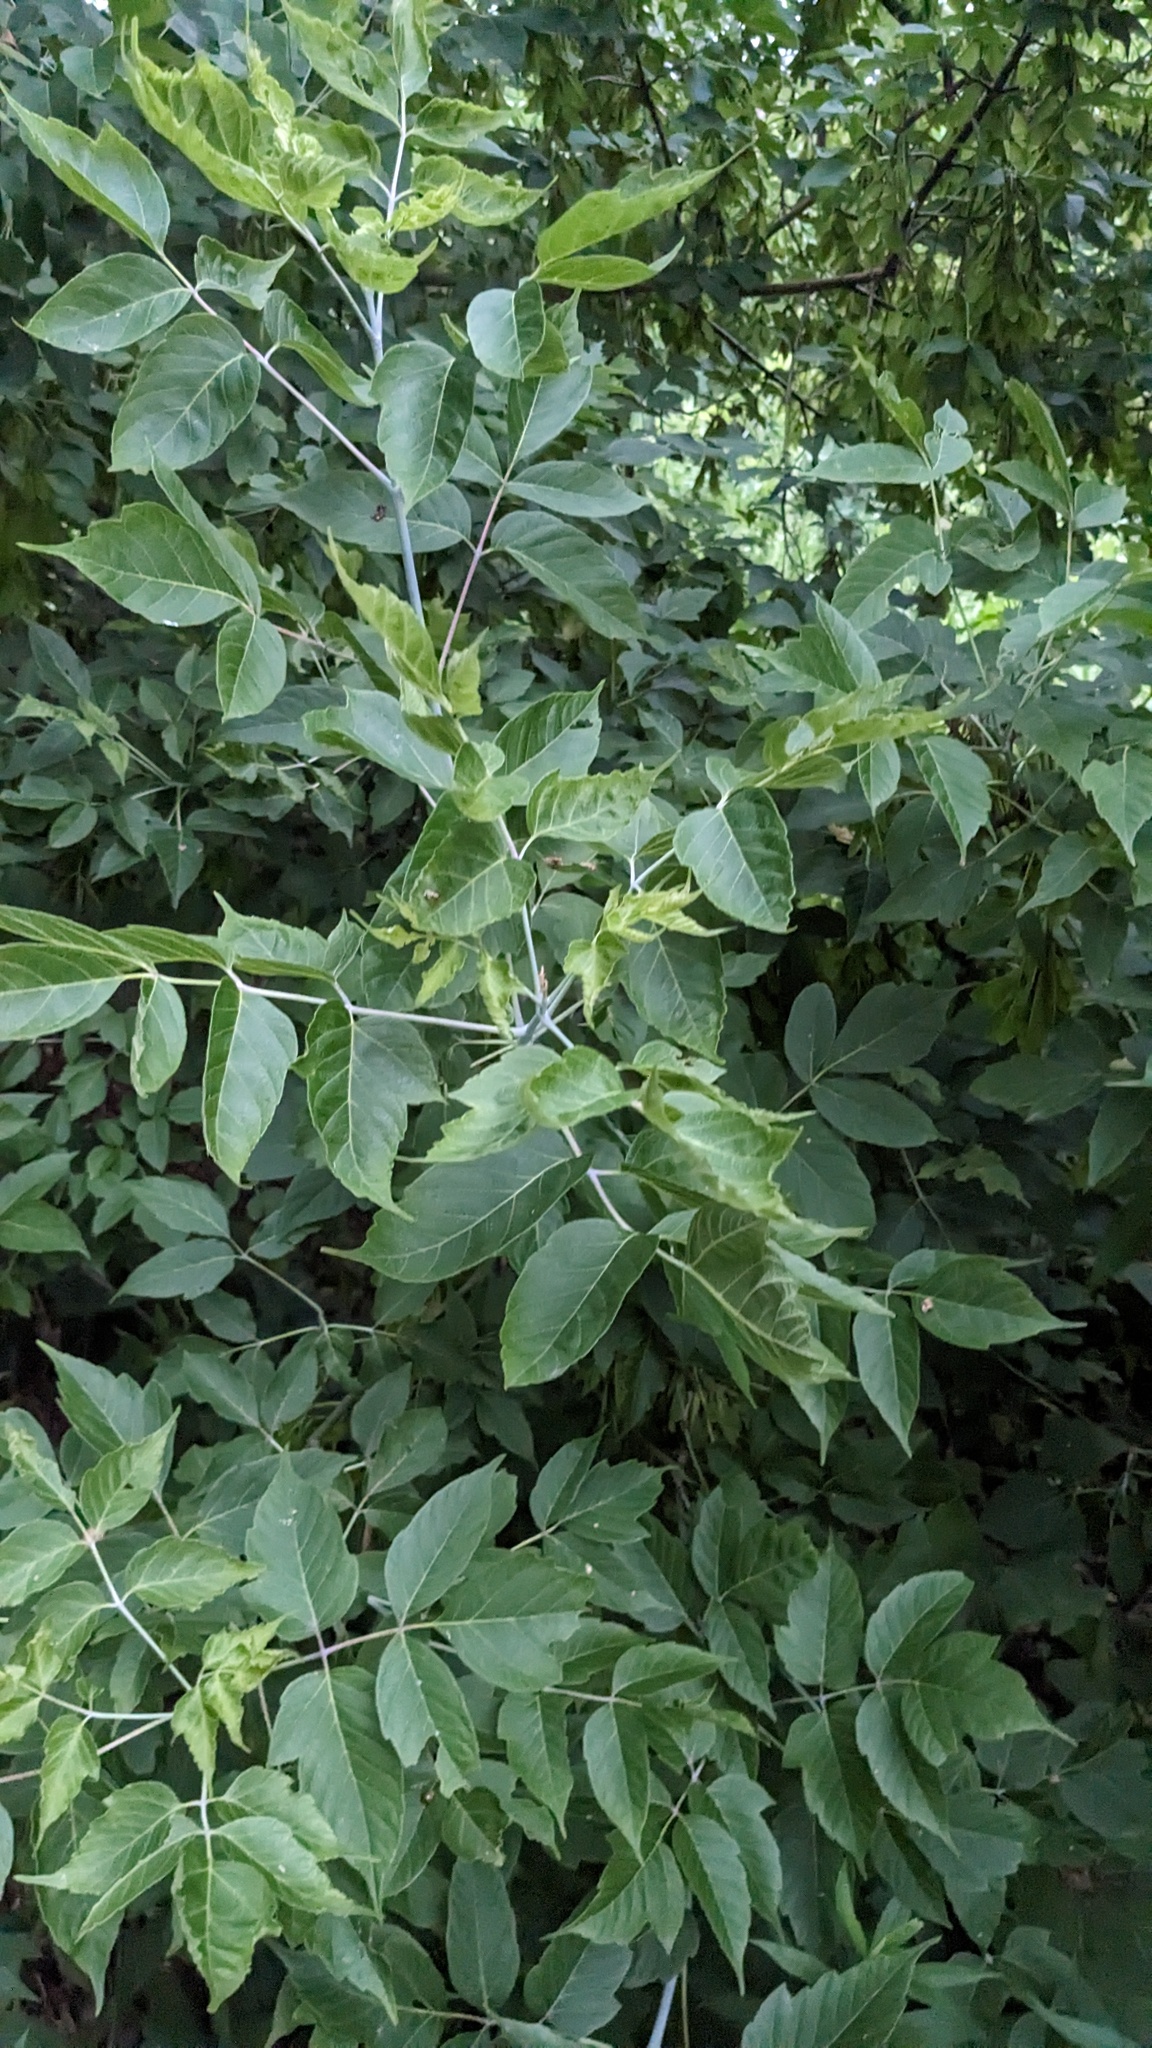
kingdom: Plantae
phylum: Tracheophyta
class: Magnoliopsida
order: Sapindales
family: Sapindaceae
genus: Acer
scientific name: Acer negundo
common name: Ashleaf maple
